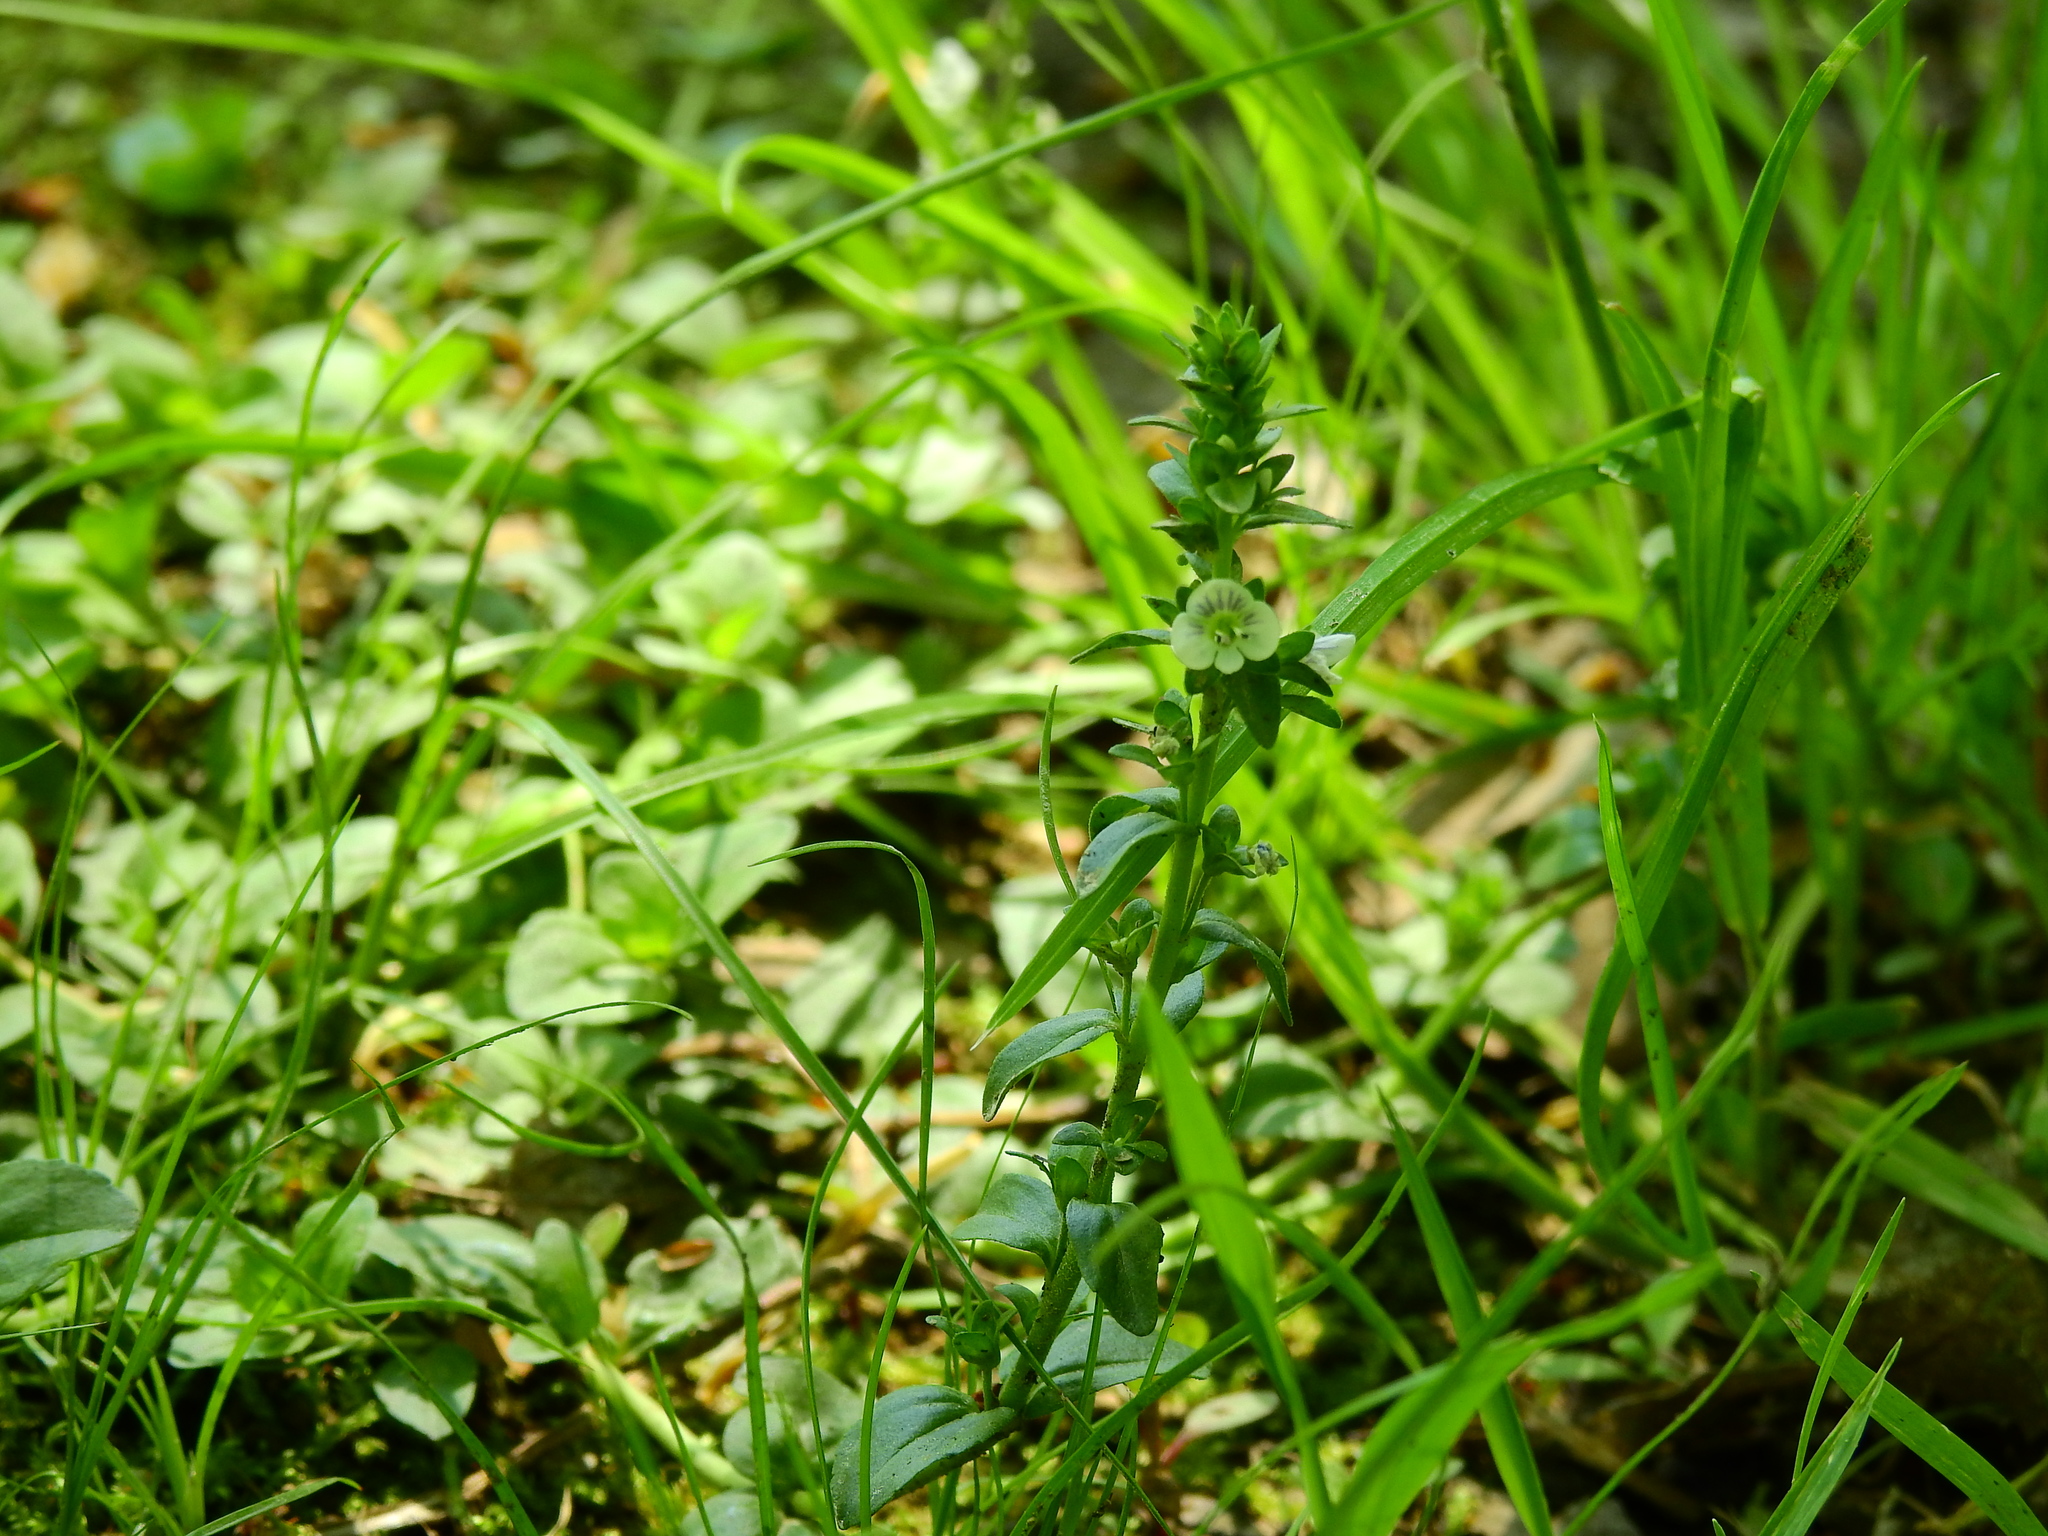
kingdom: Plantae
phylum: Tracheophyta
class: Magnoliopsida
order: Lamiales
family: Plantaginaceae
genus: Veronica
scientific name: Veronica serpyllifolia
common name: Thyme-leaved speedwell
